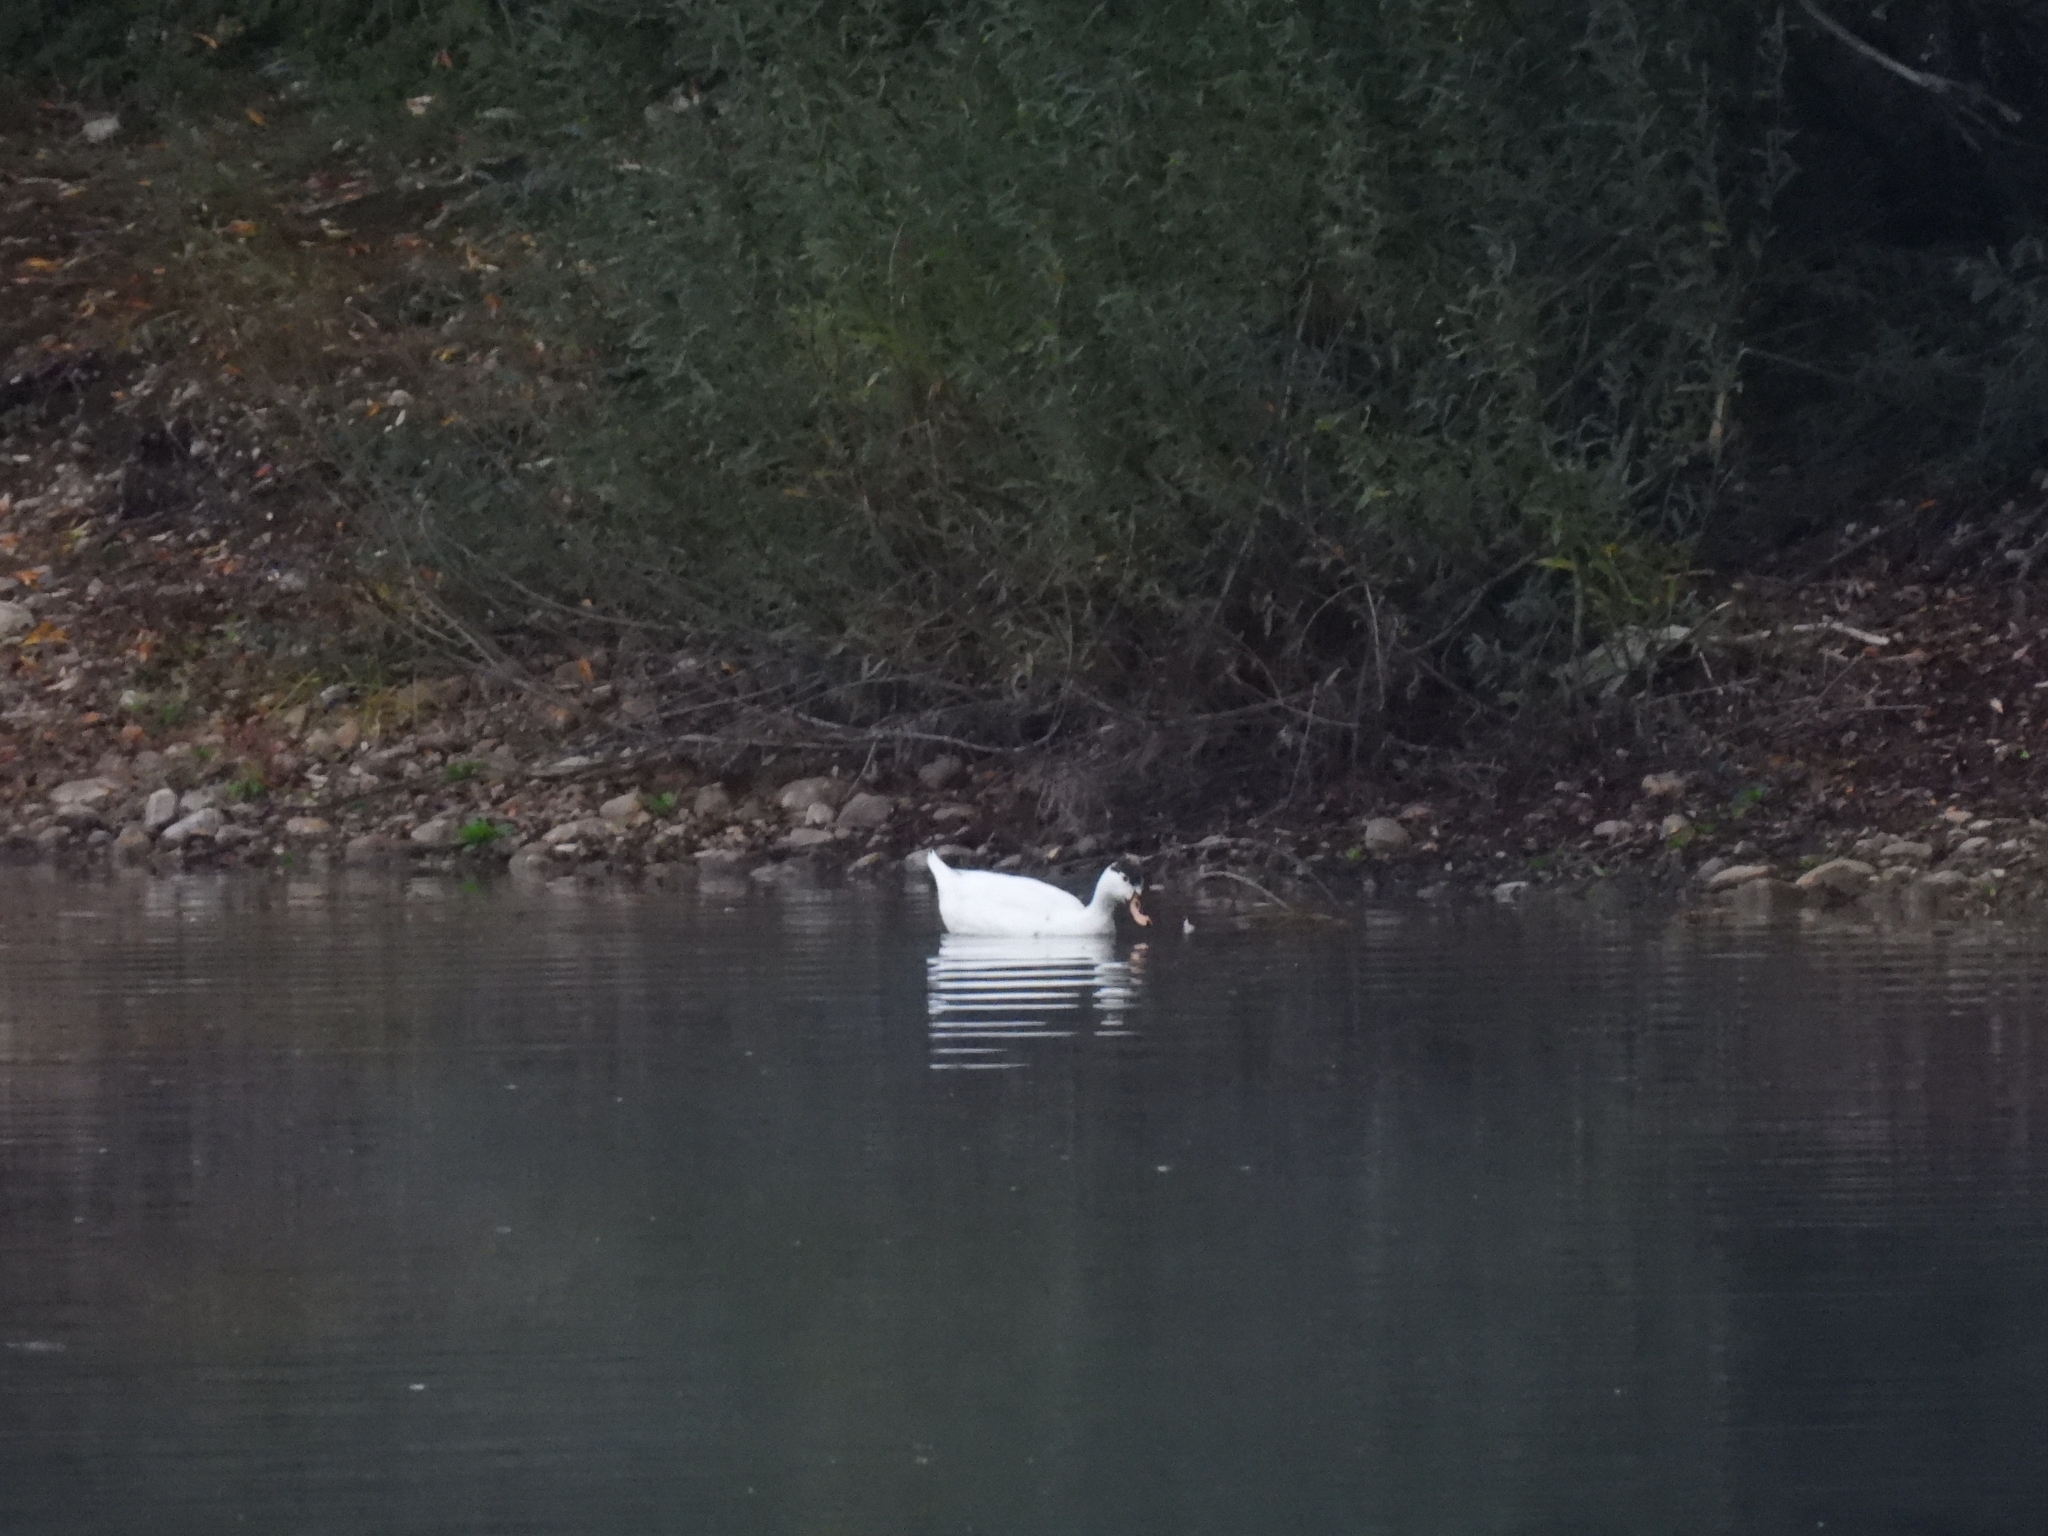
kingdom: Animalia
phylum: Chordata
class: Aves
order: Anseriformes
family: Anatidae
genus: Anas
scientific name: Anas platyrhynchos
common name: Mallard
